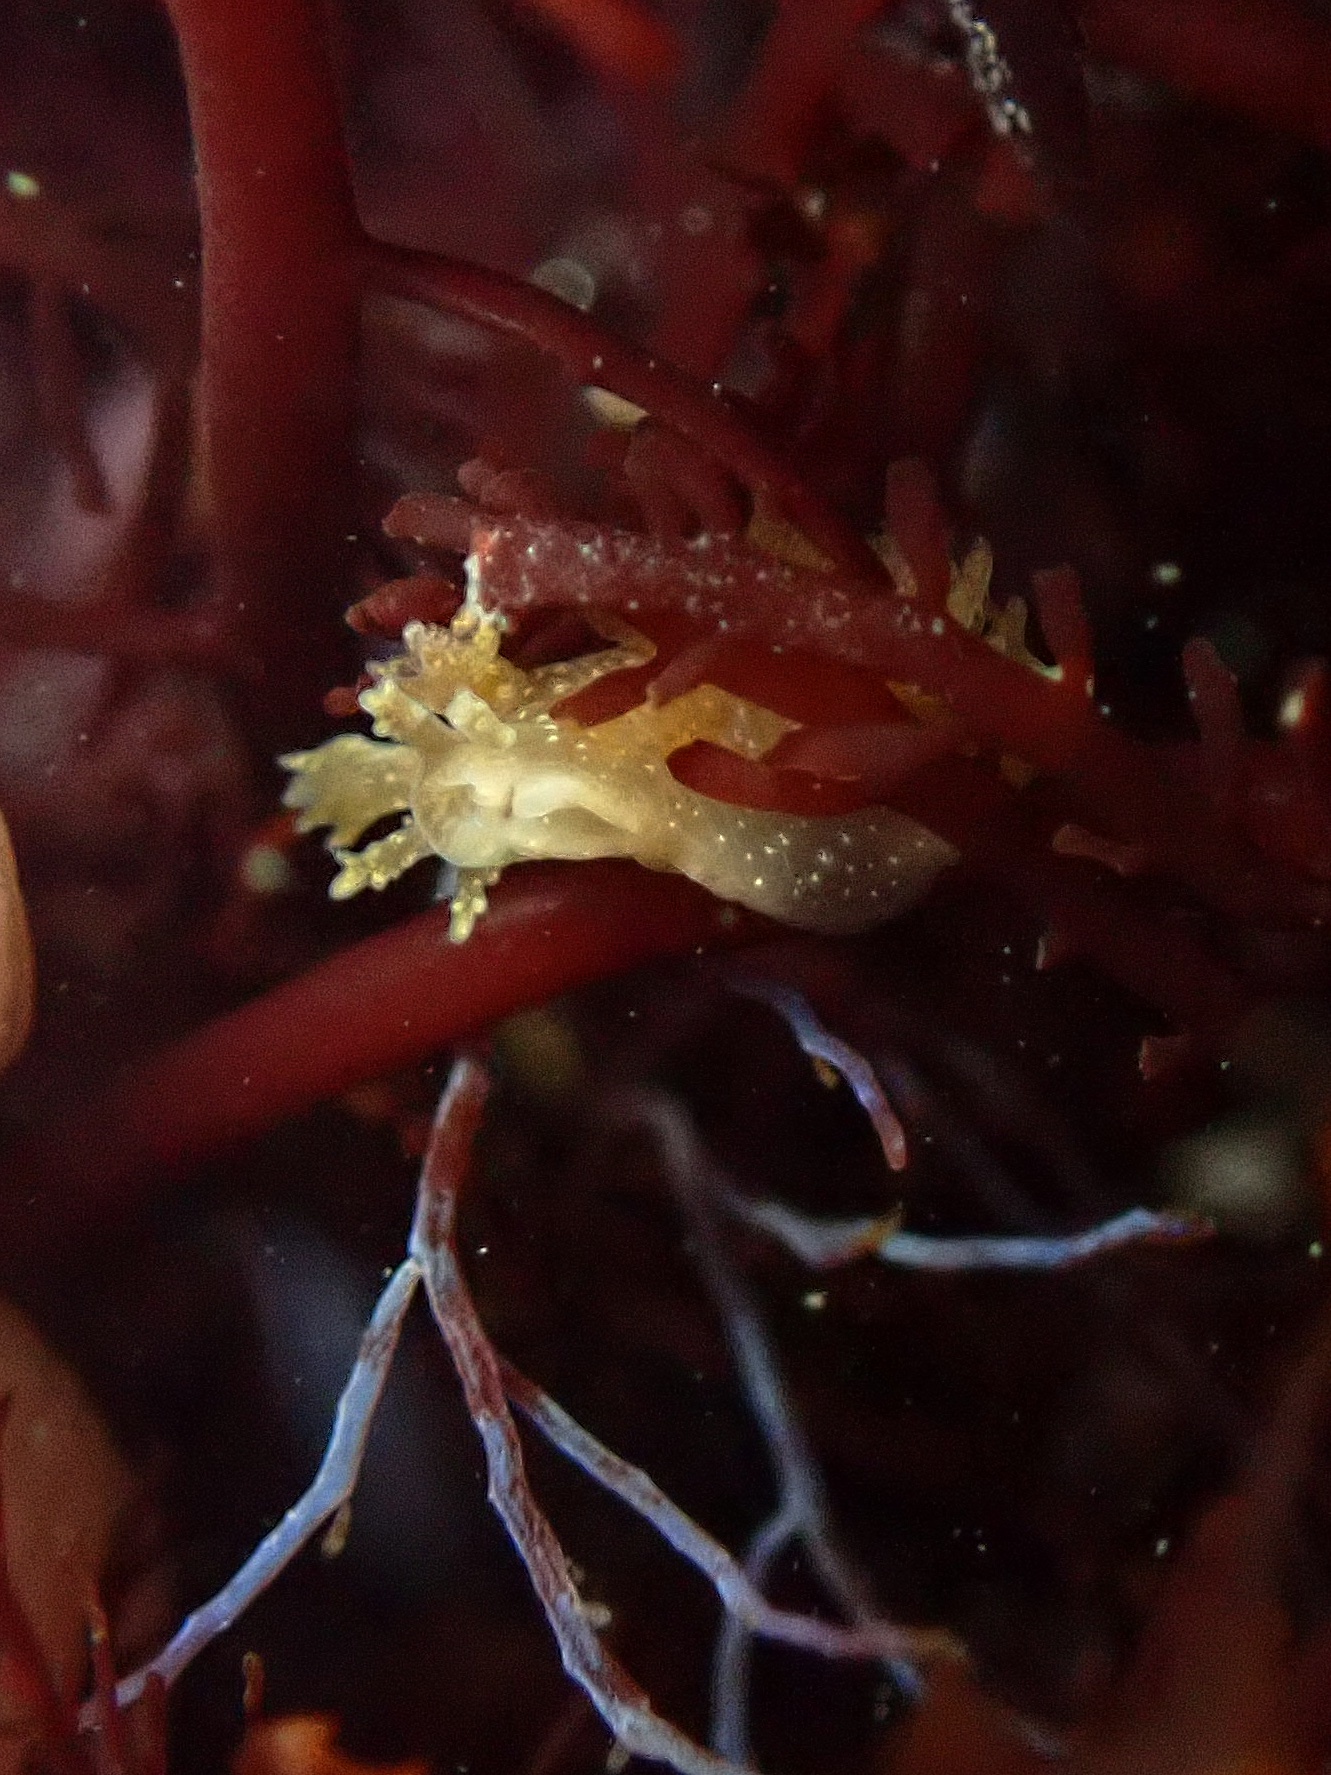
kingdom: Animalia
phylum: Mollusca
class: Gastropoda
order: Nudibranchia
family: Dendronotidae
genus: Dendronotus
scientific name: Dendronotus subramosus
